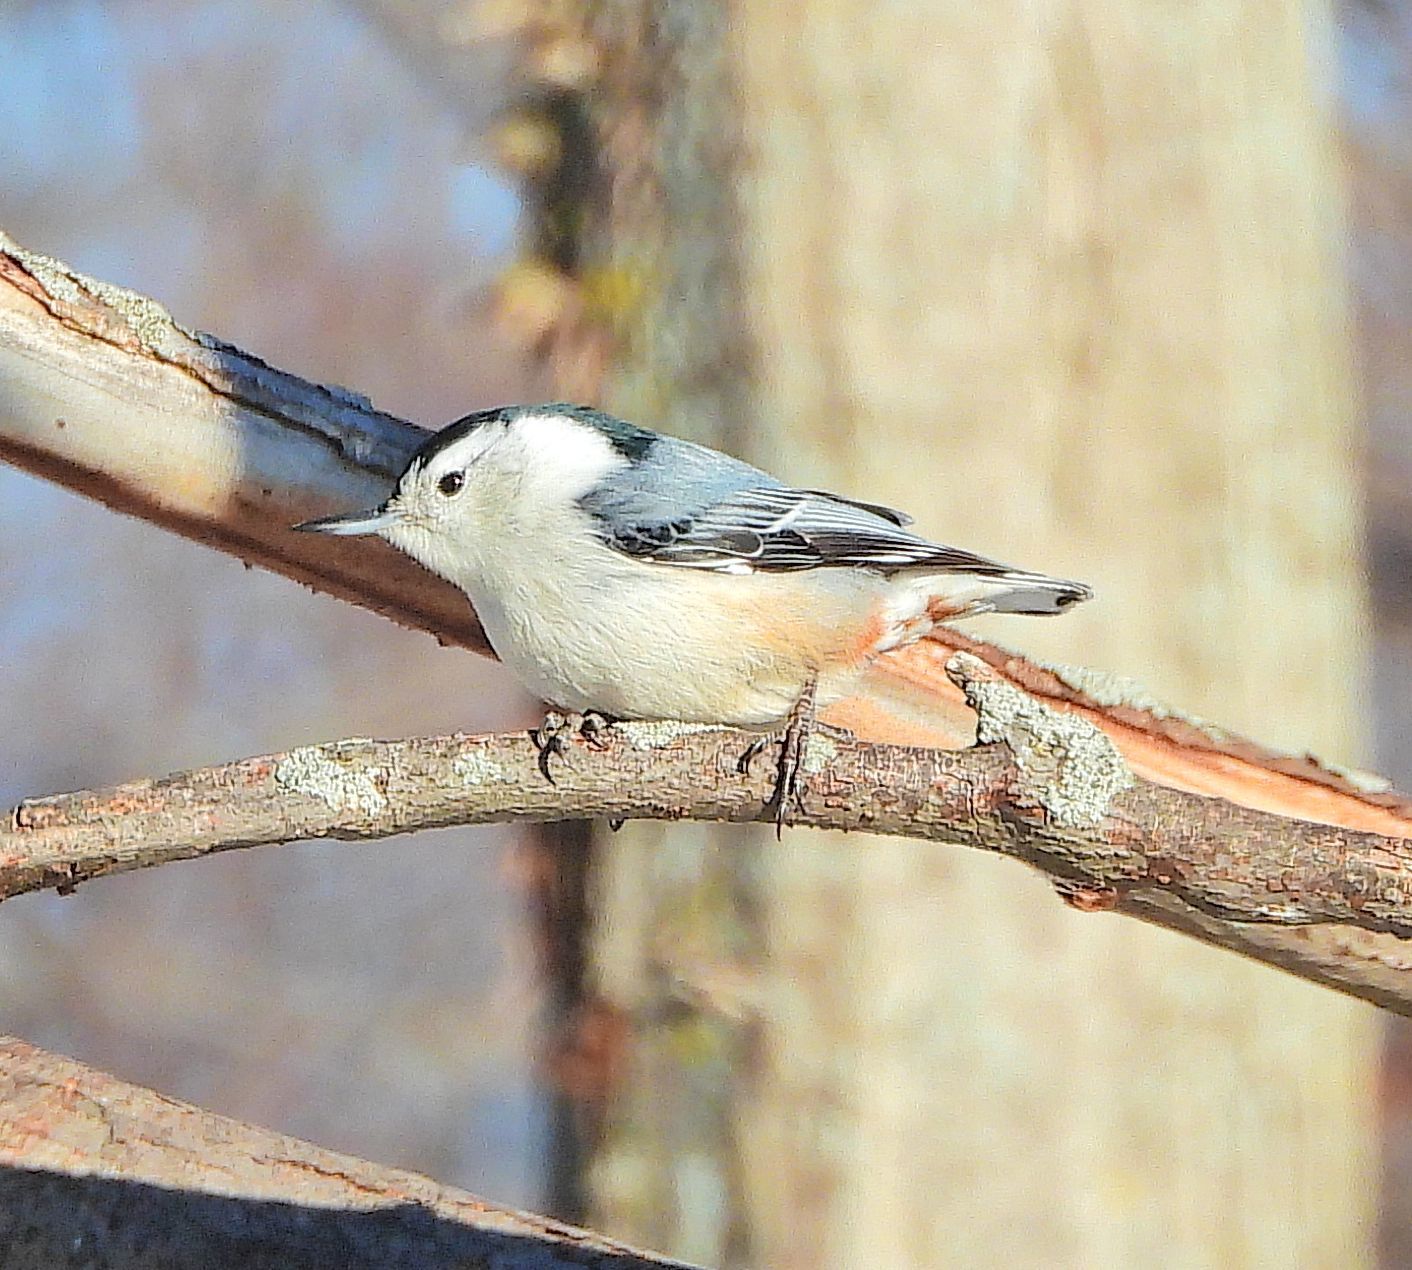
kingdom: Animalia
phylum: Chordata
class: Aves
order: Passeriformes
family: Sittidae
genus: Sitta
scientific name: Sitta carolinensis
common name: White-breasted nuthatch
